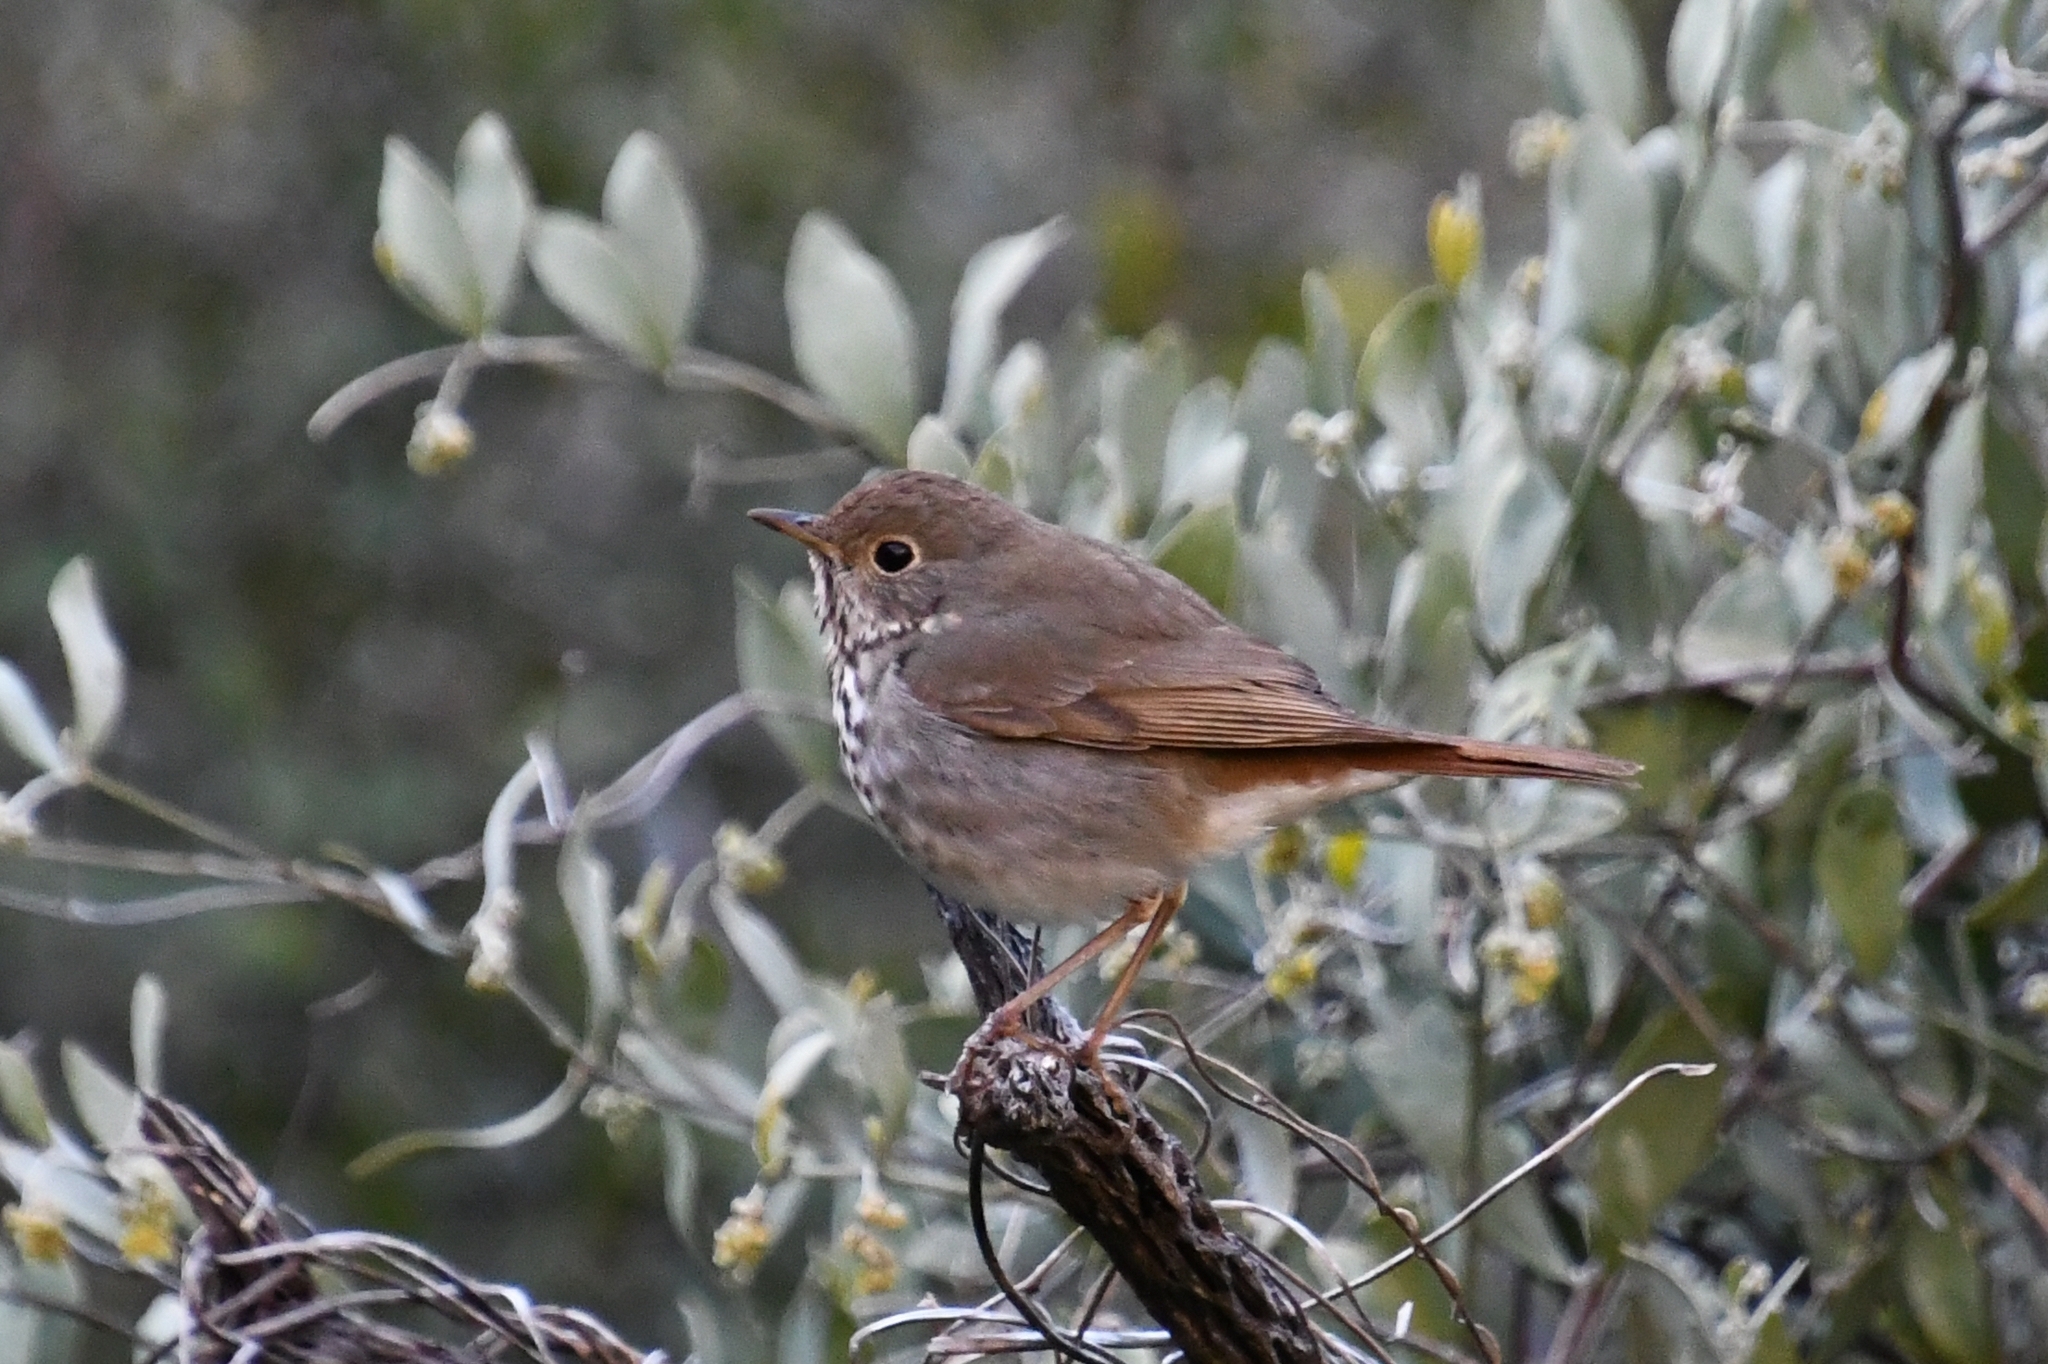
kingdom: Animalia
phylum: Chordata
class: Aves
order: Passeriformes
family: Turdidae
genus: Catharus
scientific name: Catharus guttatus
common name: Hermit thrush
